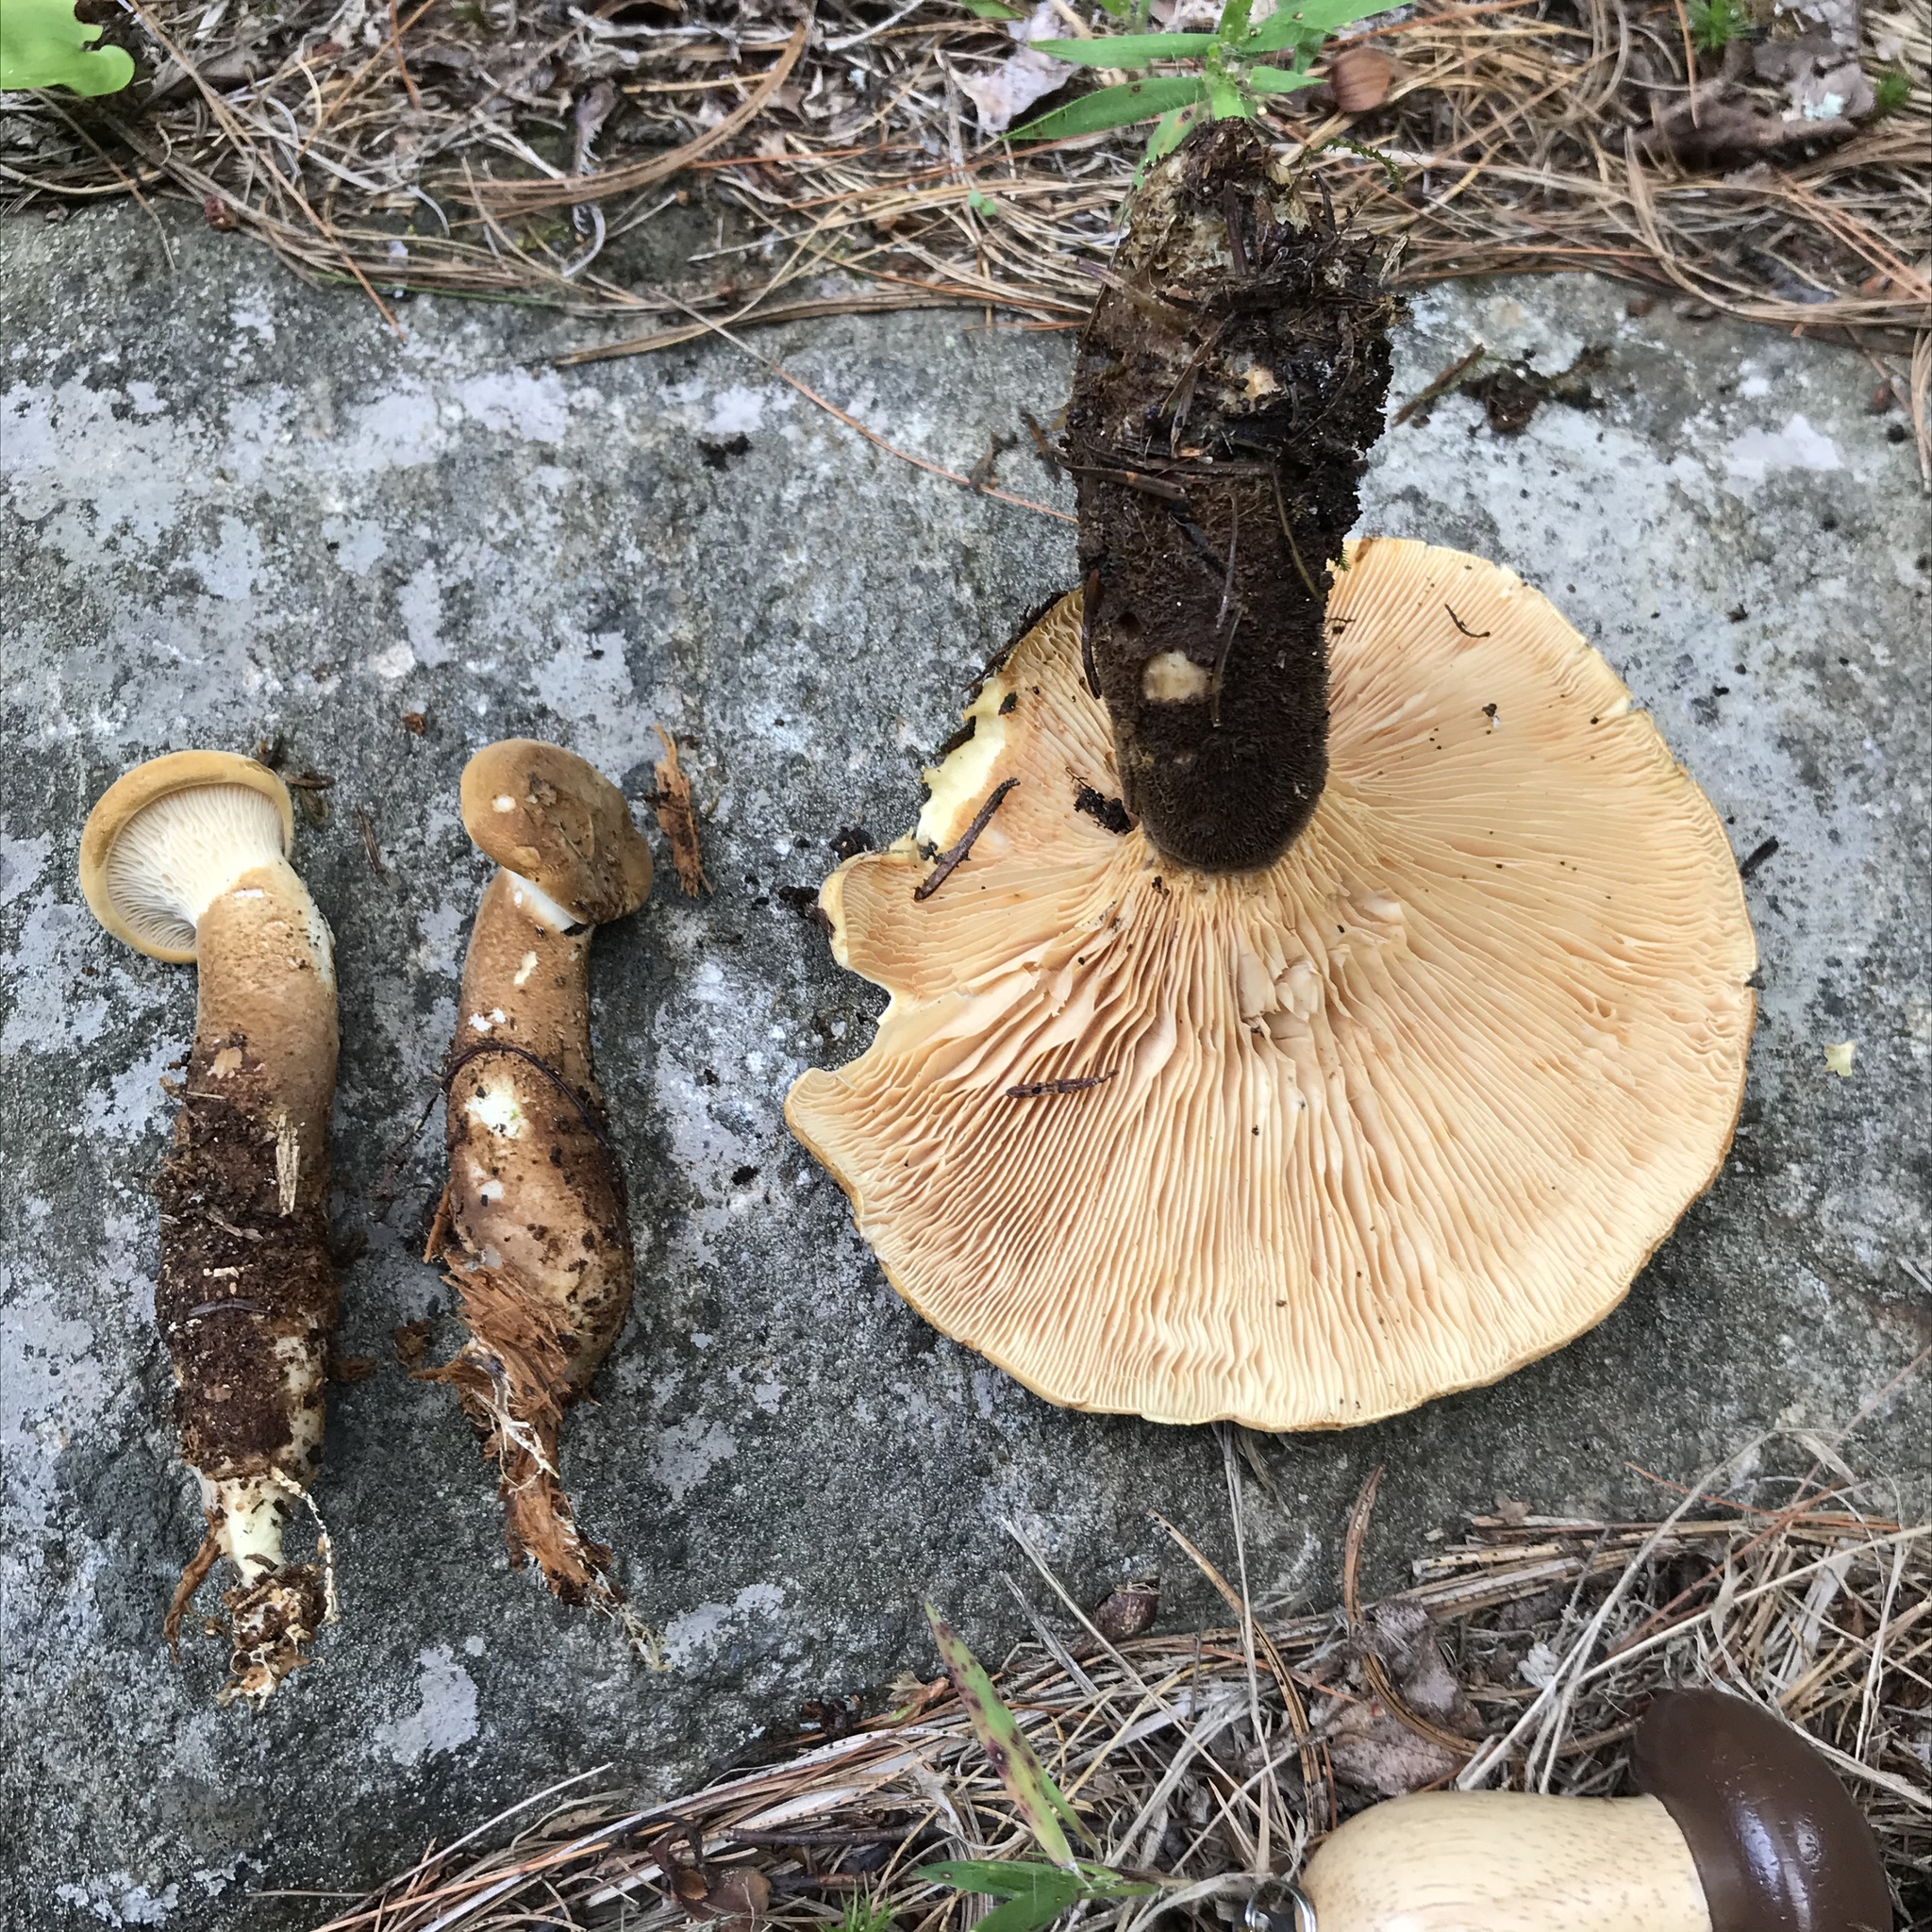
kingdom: Fungi
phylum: Basidiomycota
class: Agaricomycetes
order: Boletales
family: Tapinellaceae
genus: Tapinella
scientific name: Tapinella atrotomentosa
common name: Velvet rollrim
